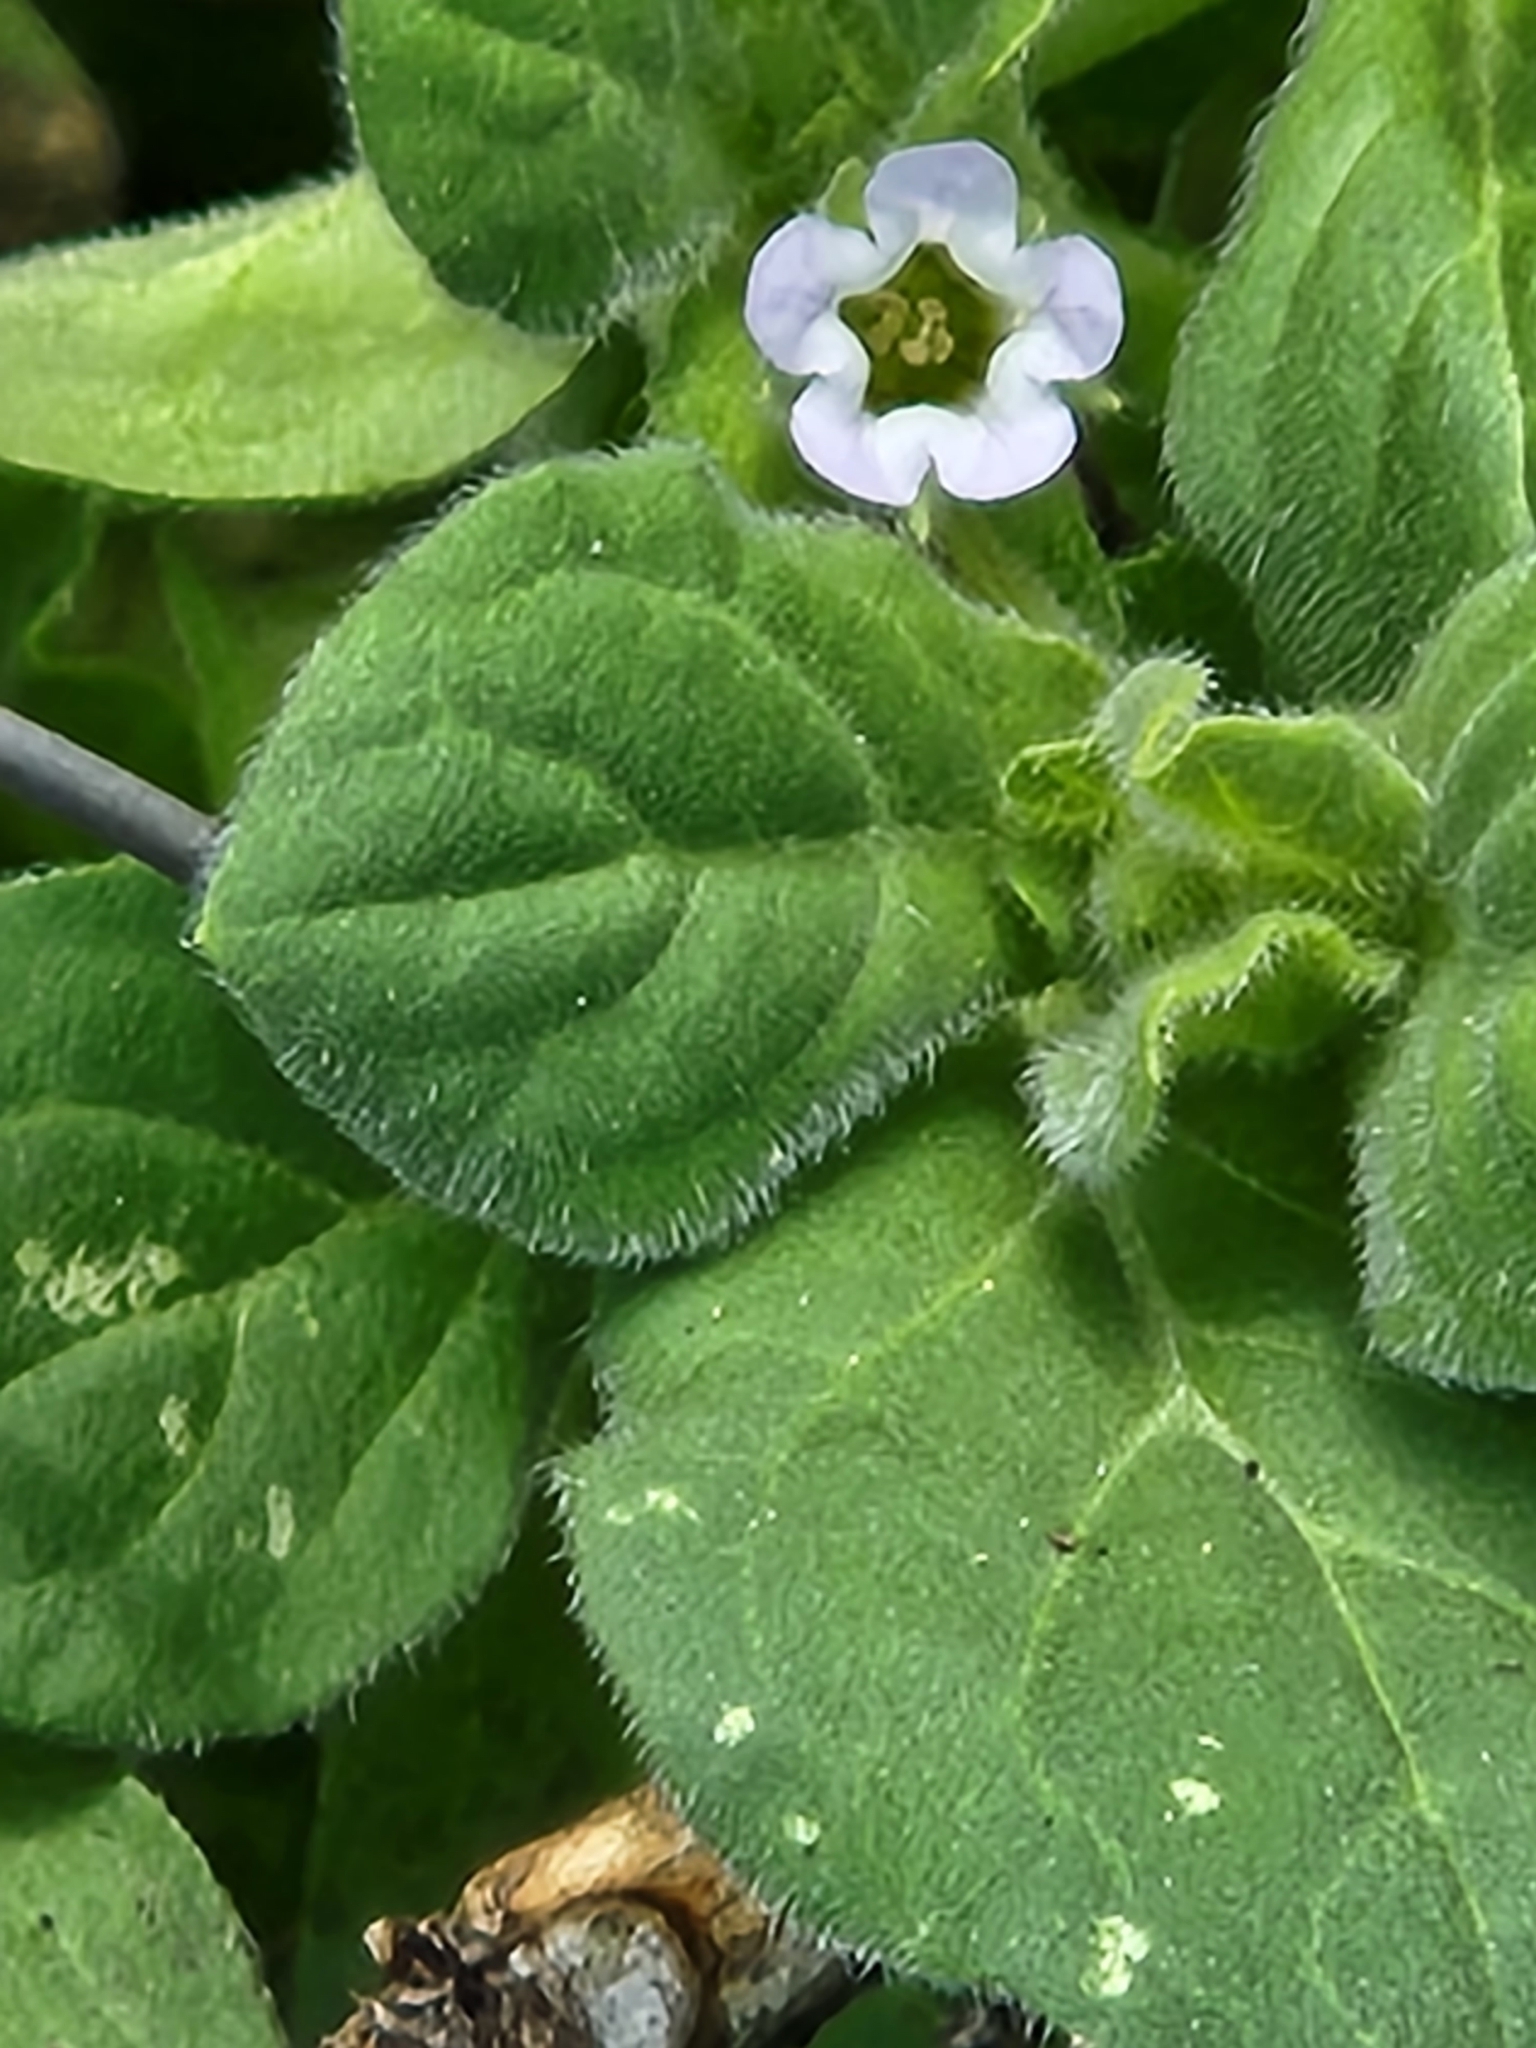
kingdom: Plantae
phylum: Tracheophyta
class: Magnoliopsida
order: Boraginales
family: Namaceae
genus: Nama
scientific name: Nama jamaicensis
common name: Jamaicanweed
